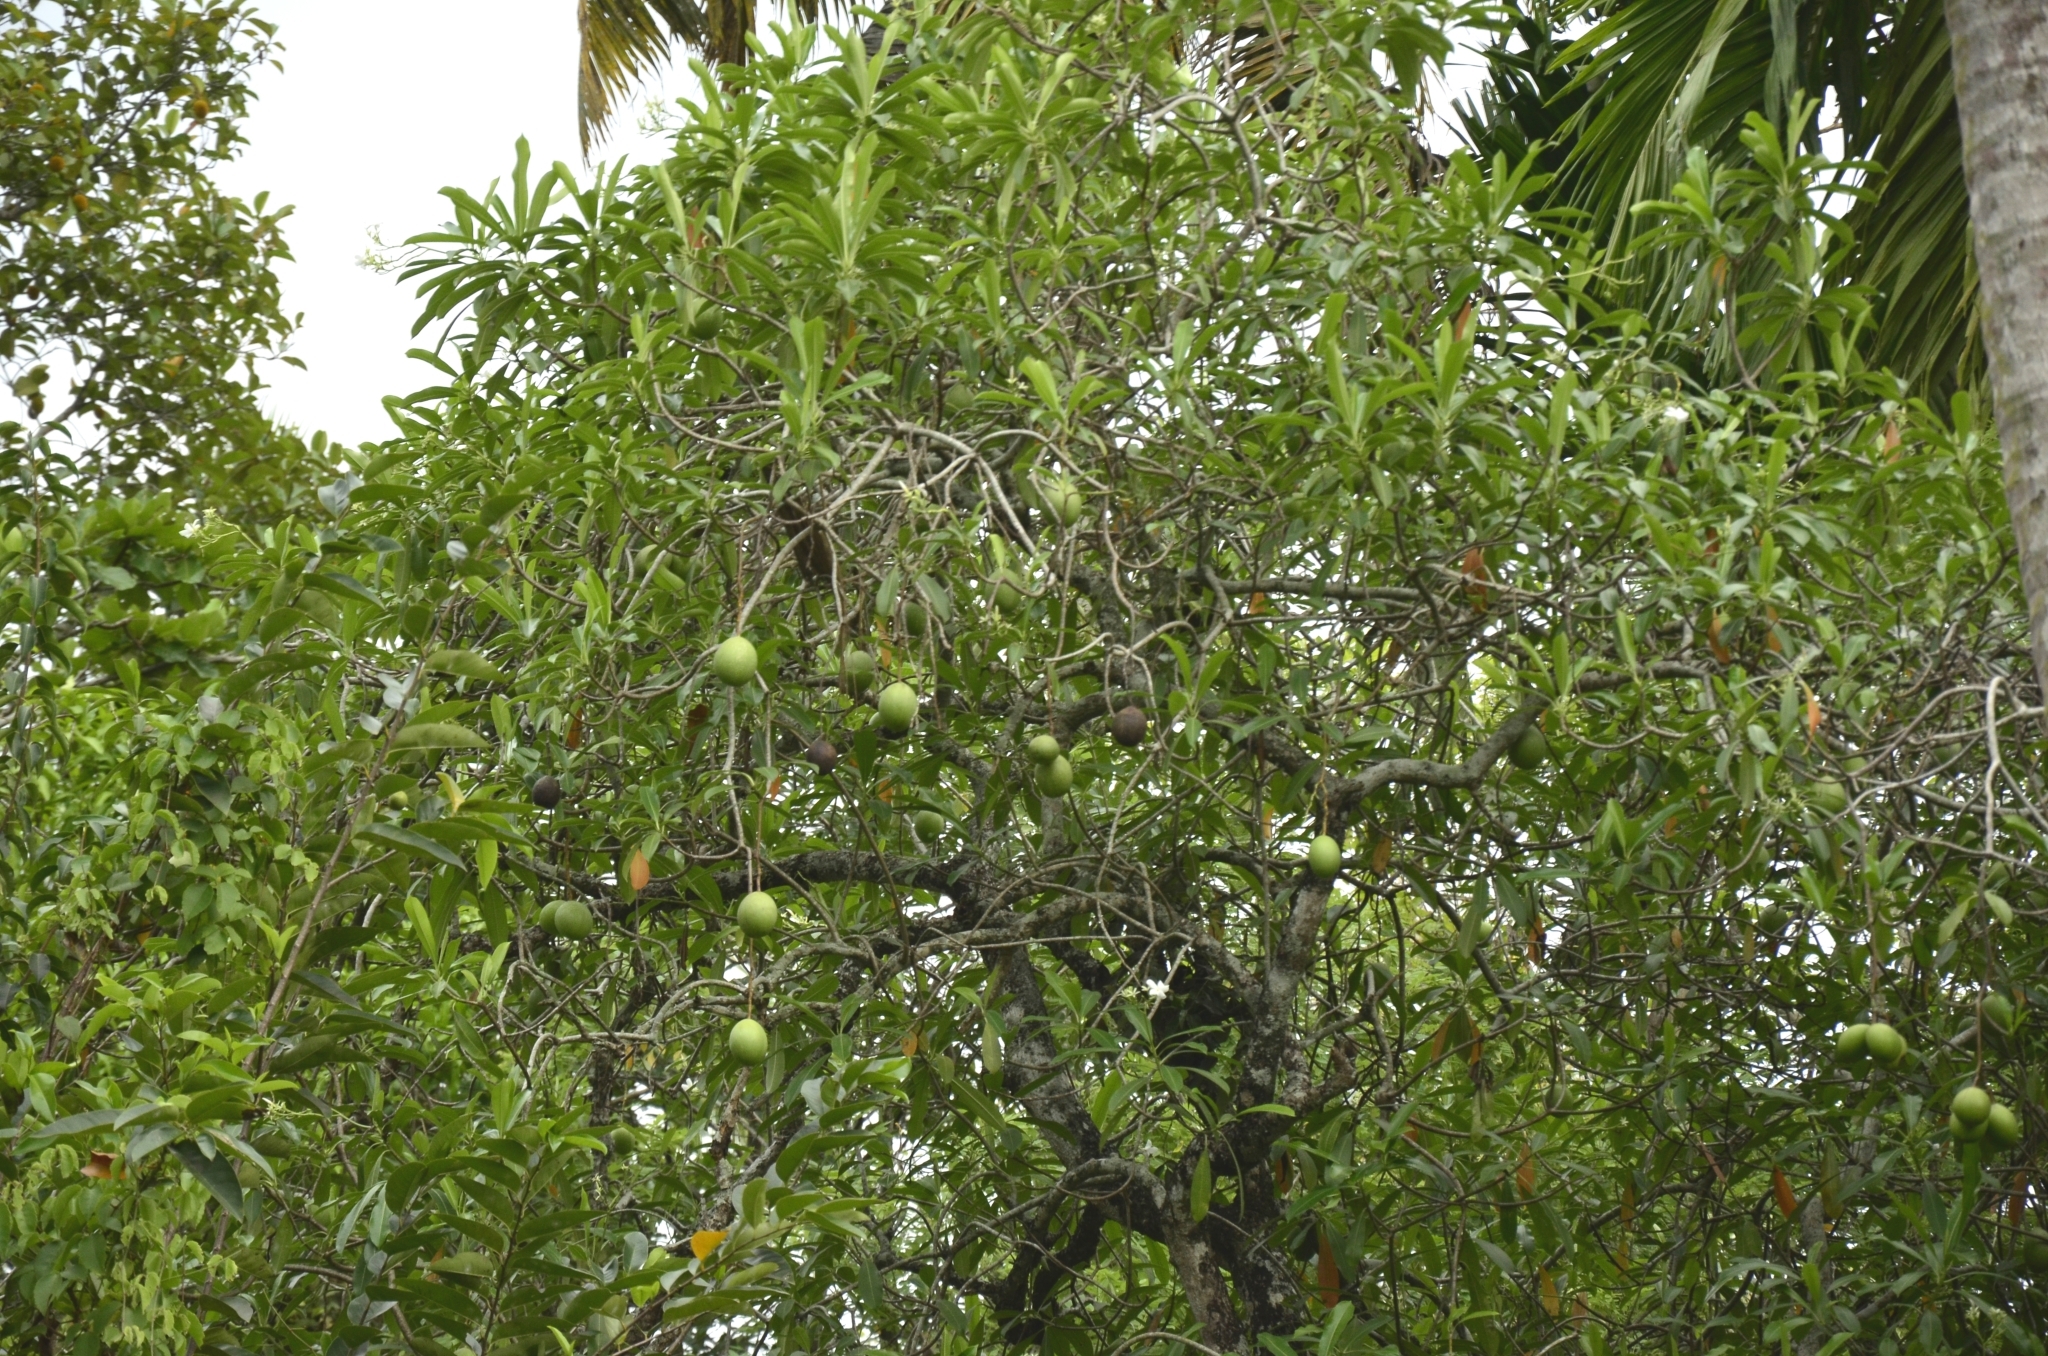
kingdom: Plantae
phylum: Tracheophyta
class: Magnoliopsida
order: Gentianales
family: Apocynaceae
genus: Cerbera
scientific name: Cerbera odollam
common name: Pong-pong
